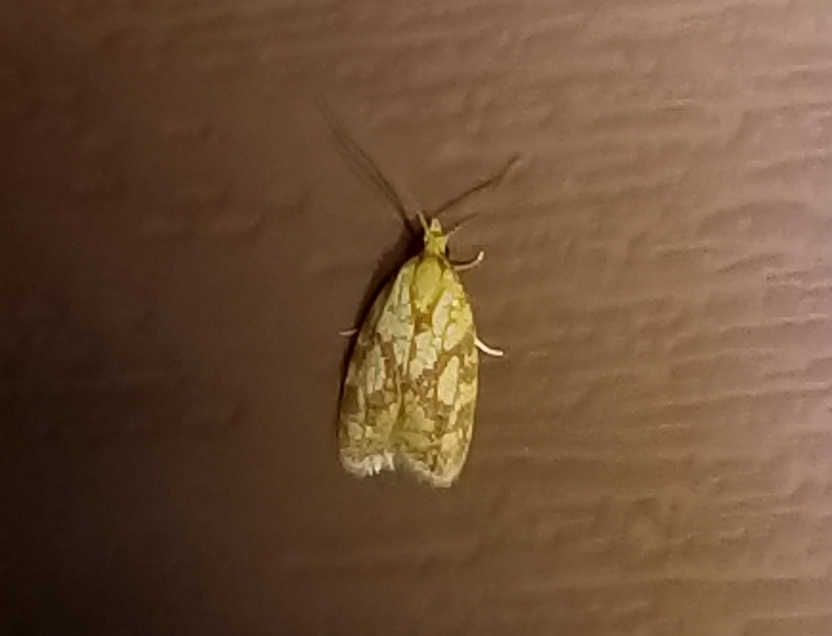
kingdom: Animalia
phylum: Arthropoda
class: Insecta
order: Lepidoptera
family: Tortricidae
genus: Sparganothis
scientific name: Sparganothis sulfureana
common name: Sparganothis fruitworm moth
